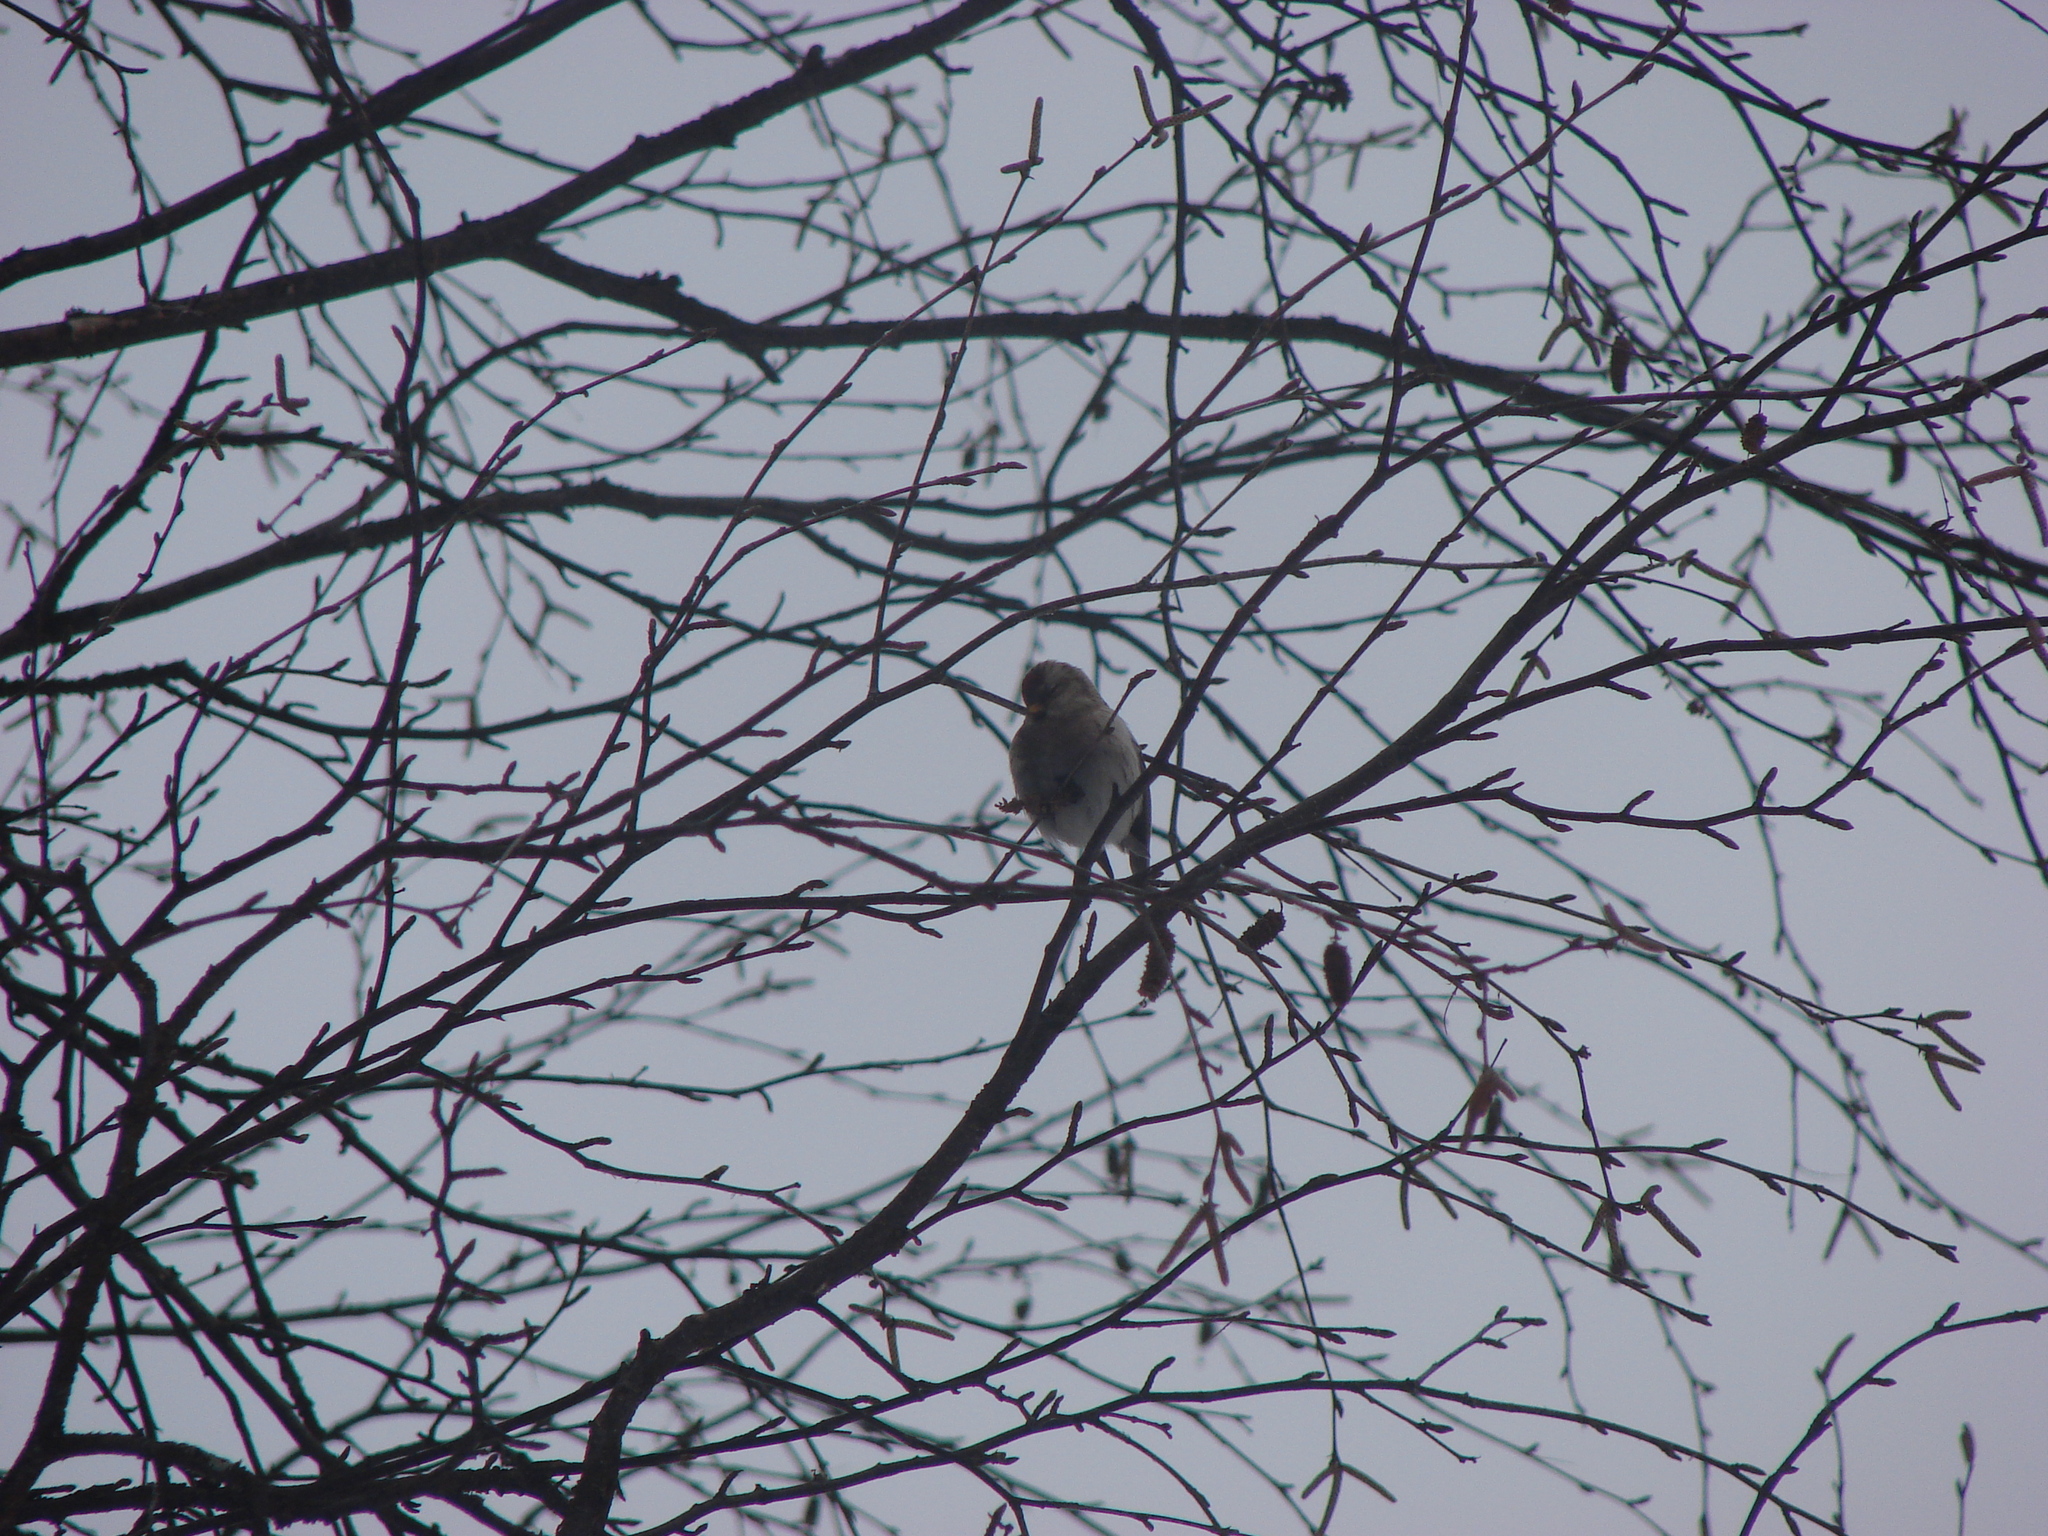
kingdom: Animalia
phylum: Chordata
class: Aves
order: Passeriformes
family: Fringillidae
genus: Acanthis
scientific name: Acanthis hornemanni
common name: Arctic redpoll
